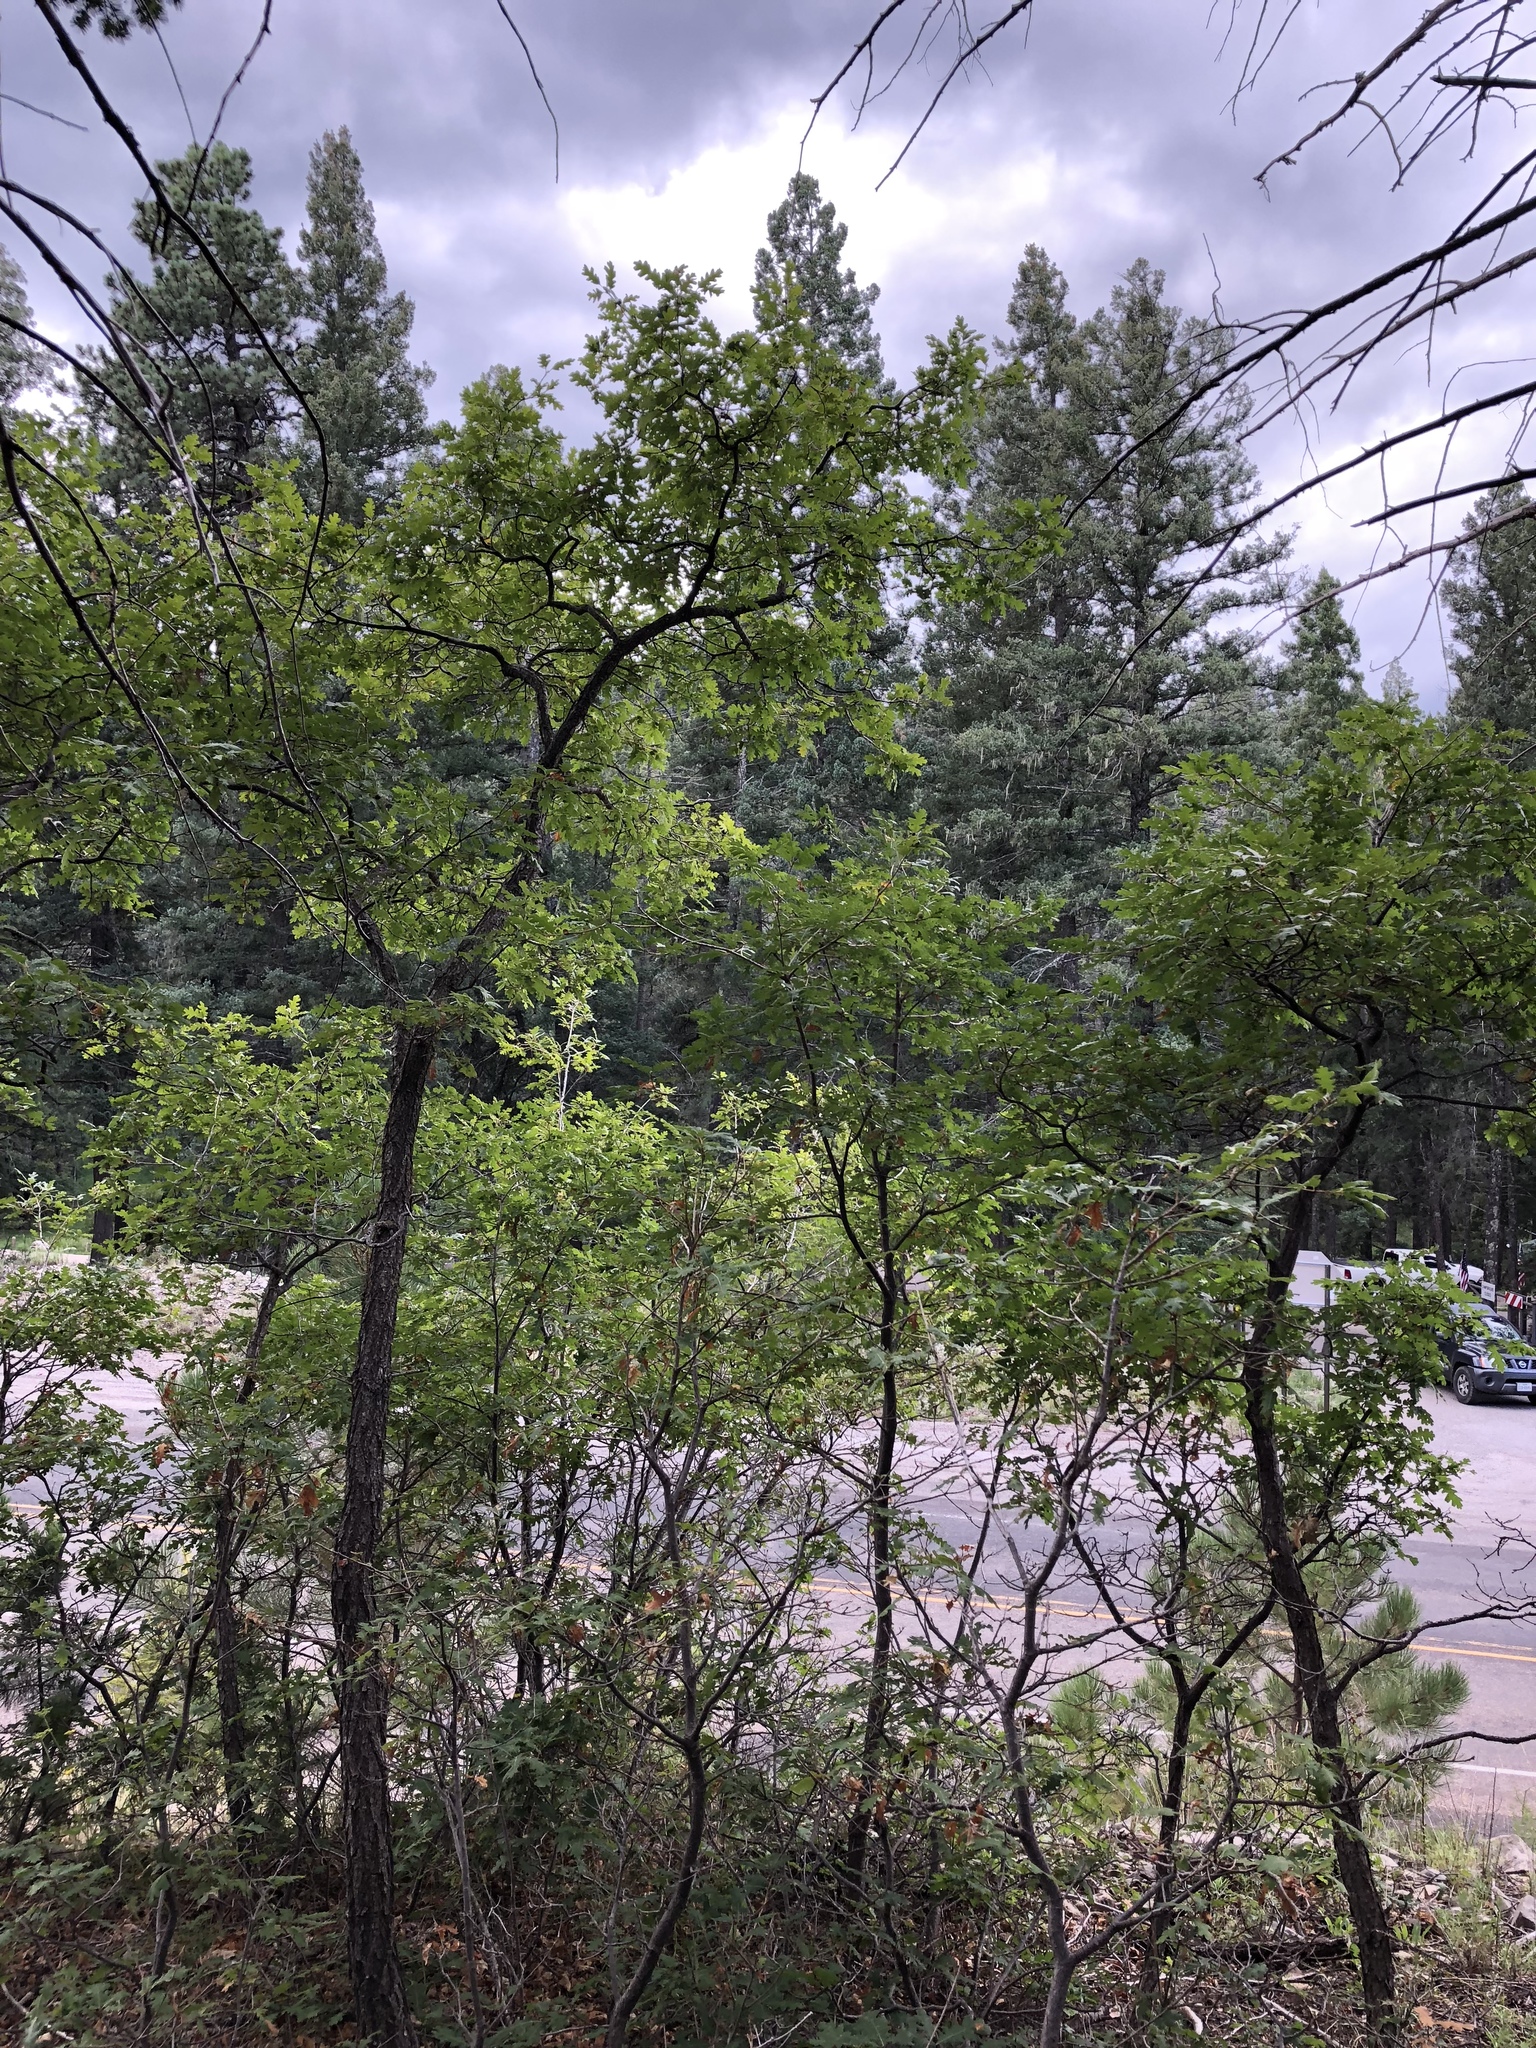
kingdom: Plantae
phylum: Tracheophyta
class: Magnoliopsida
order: Fagales
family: Fagaceae
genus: Quercus
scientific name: Quercus gambelii
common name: Gambel oak
